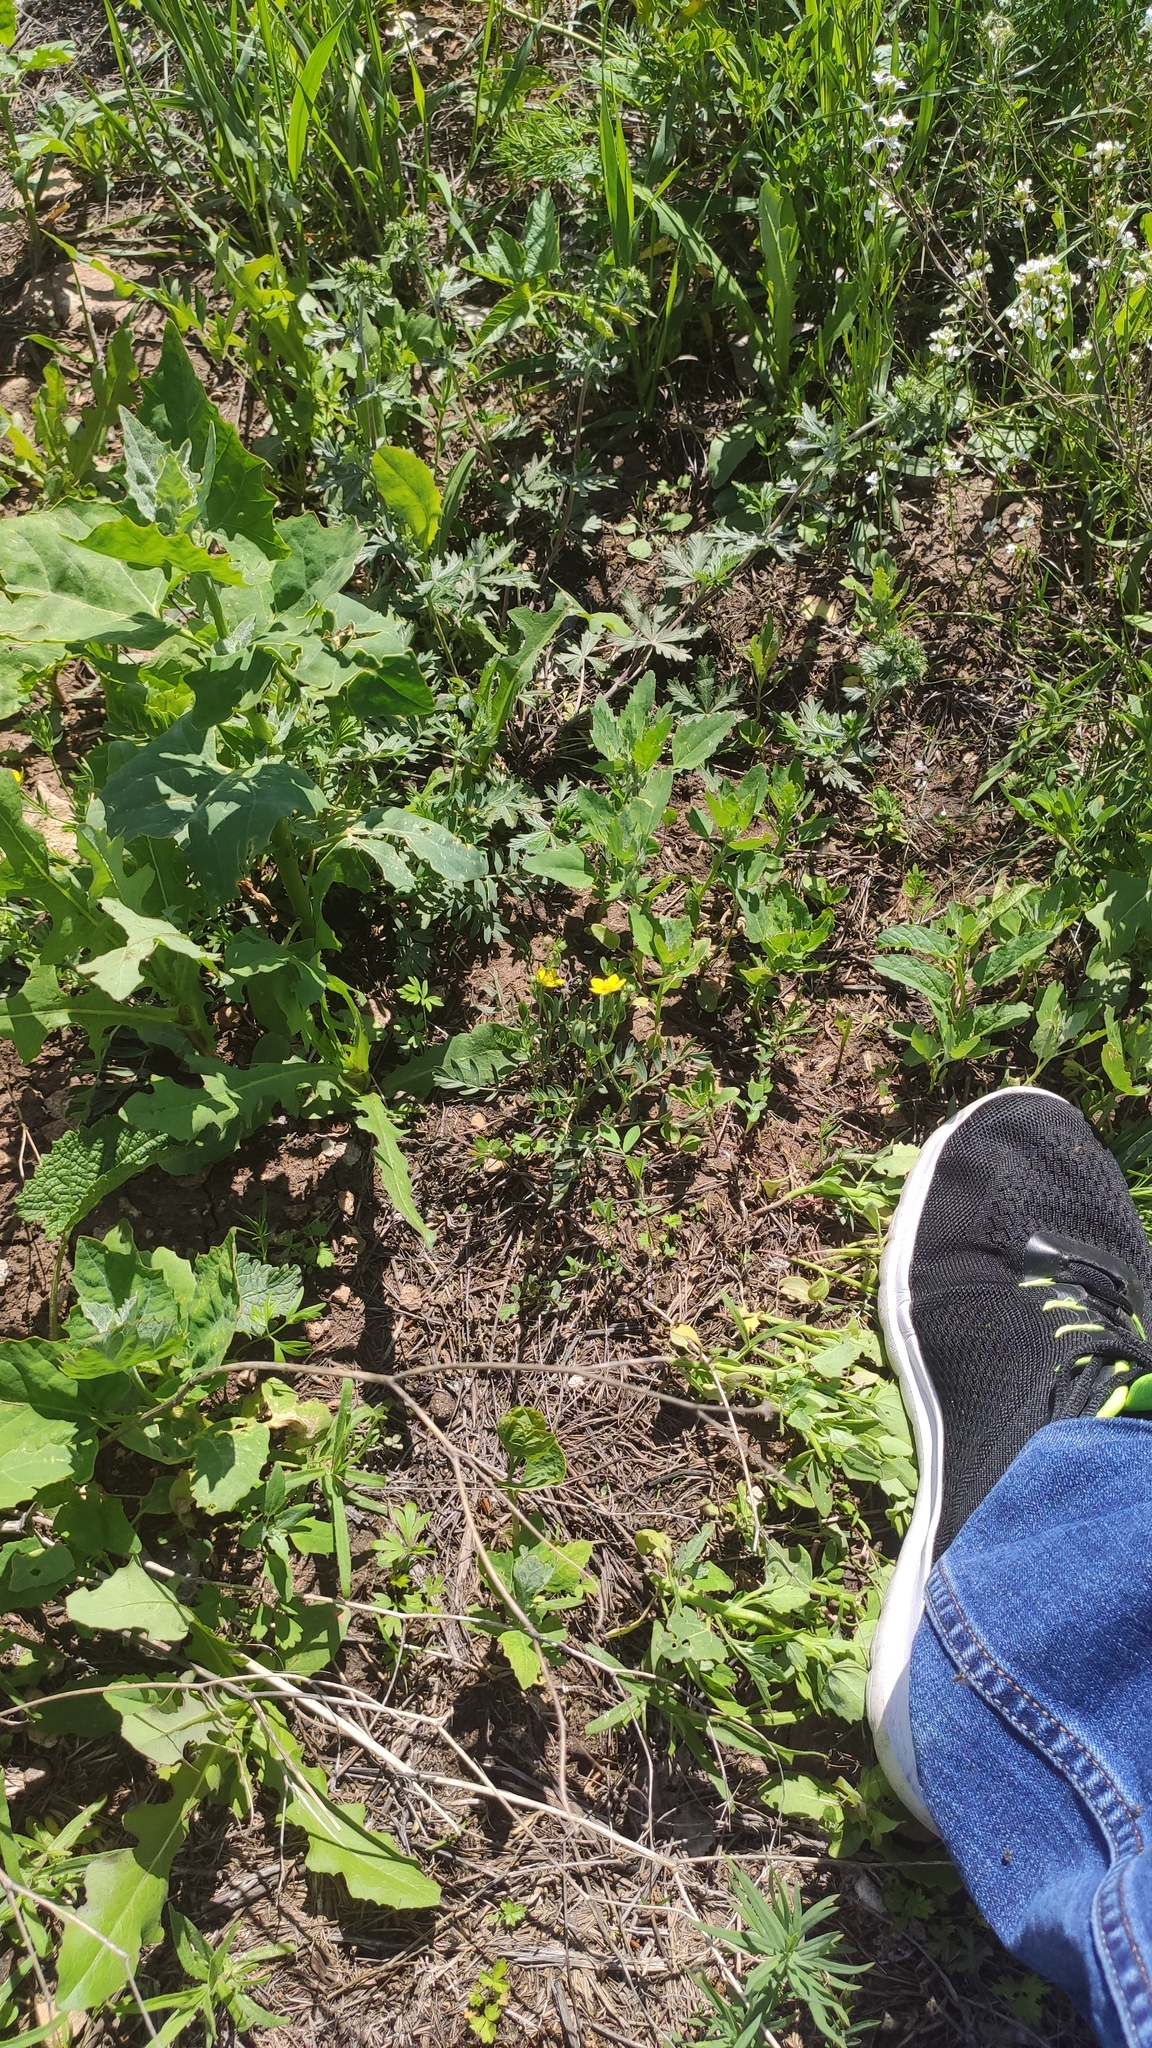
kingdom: Plantae
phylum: Tracheophyta
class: Magnoliopsida
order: Rosales
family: Rosaceae
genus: Sibbaldianthe
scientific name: Sibbaldianthe bifurca
